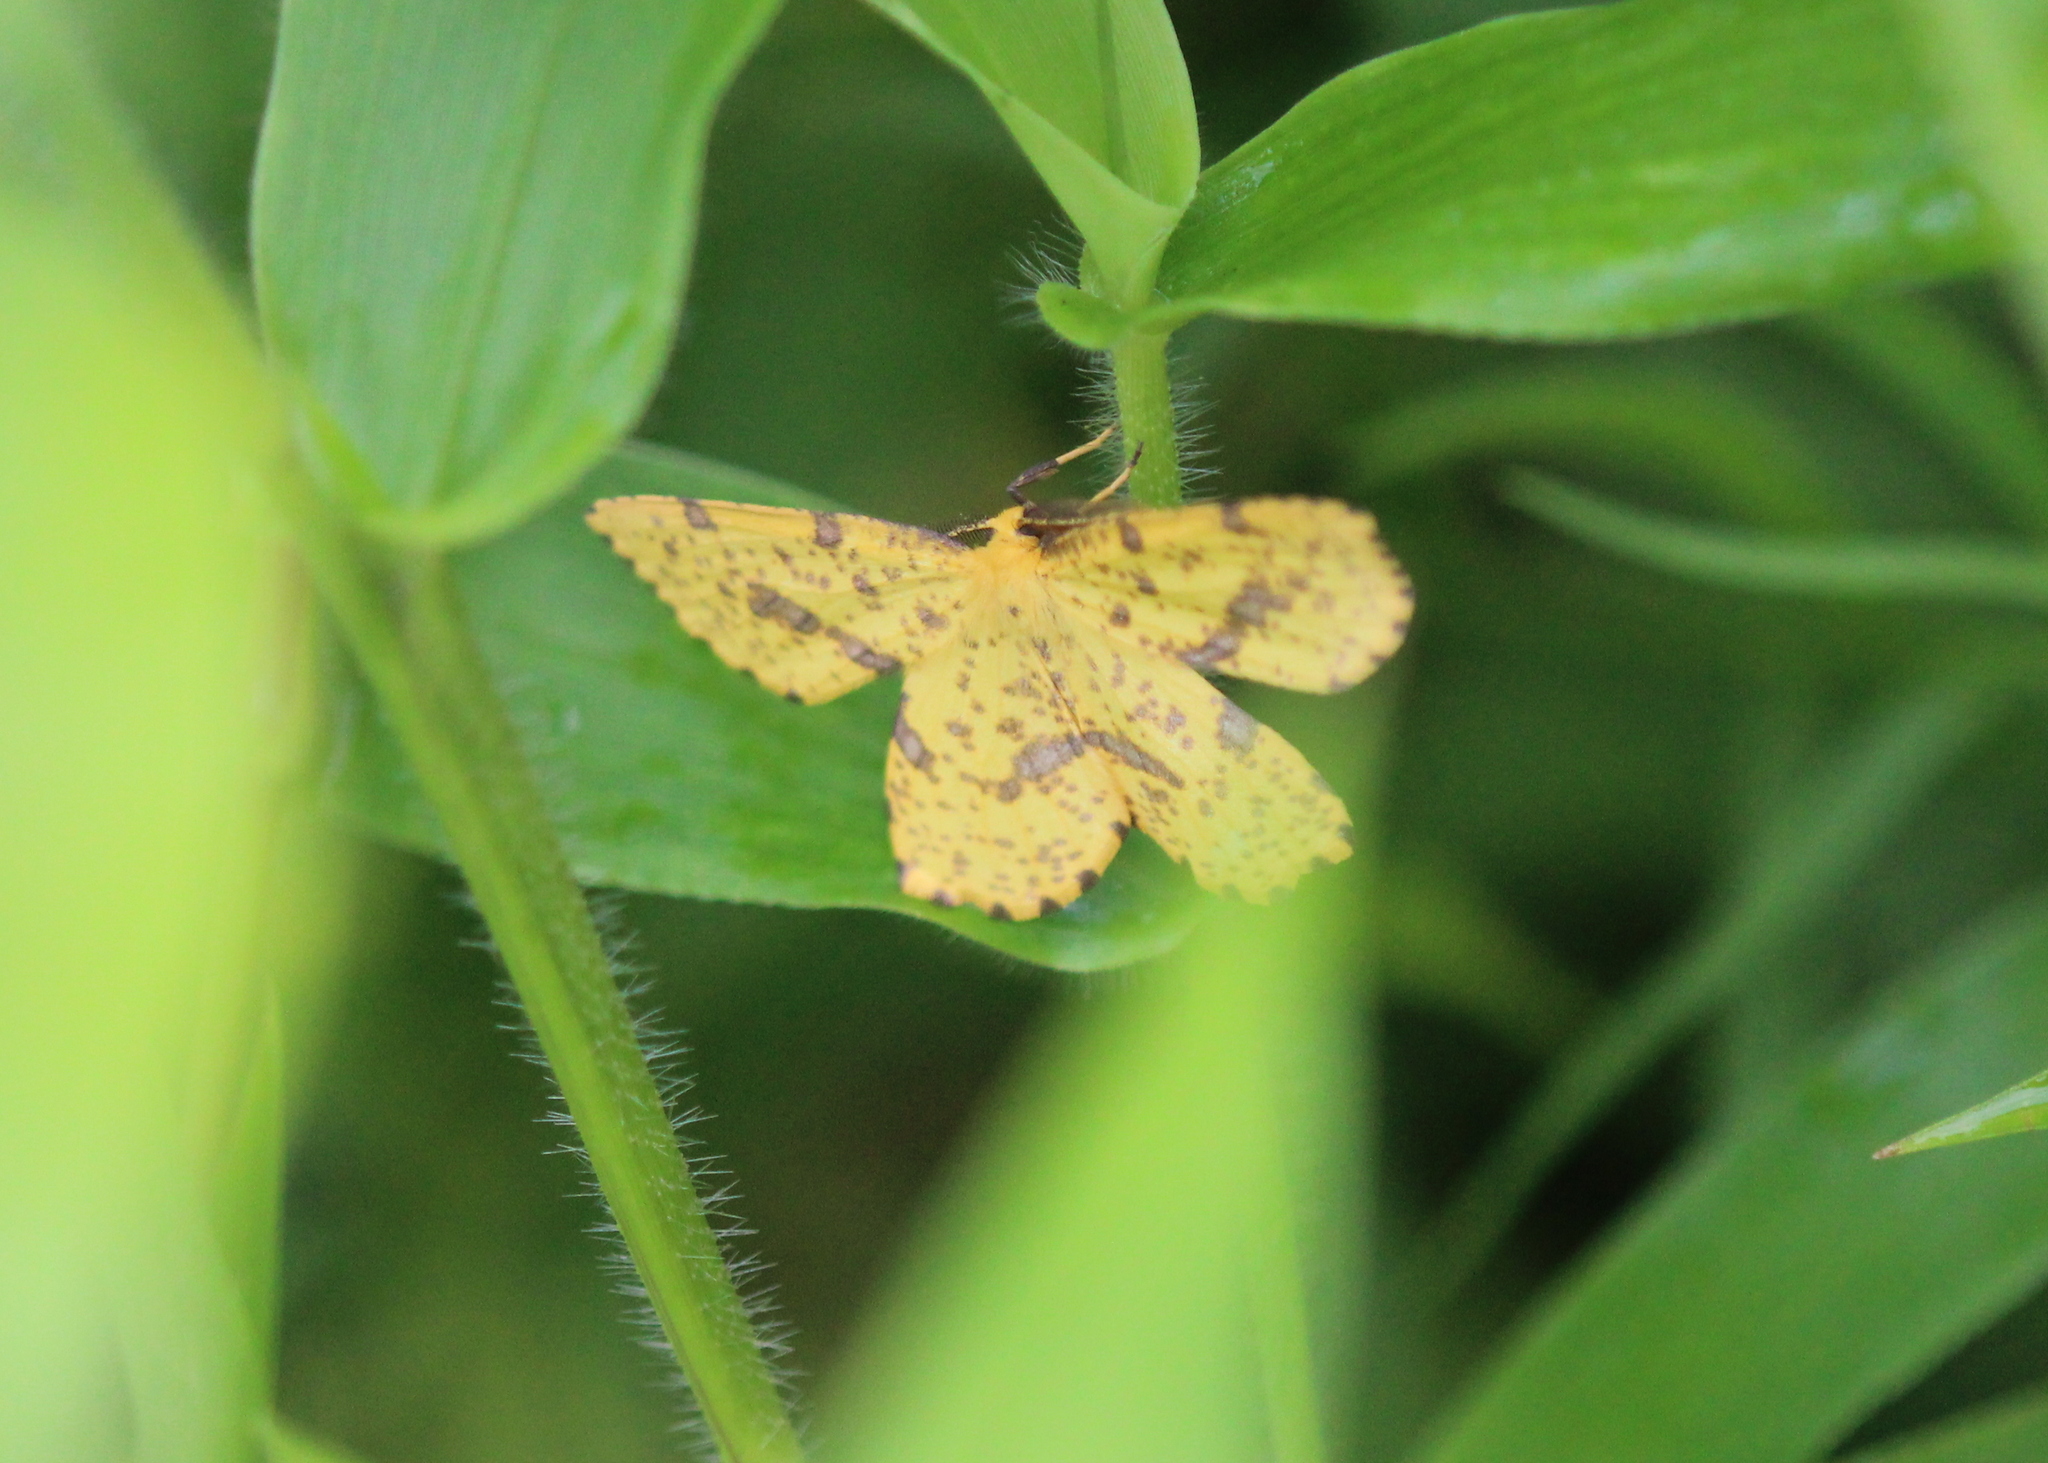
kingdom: Animalia
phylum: Arthropoda
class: Insecta
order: Lepidoptera
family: Geometridae
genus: Xanthotype
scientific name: Xanthotype
